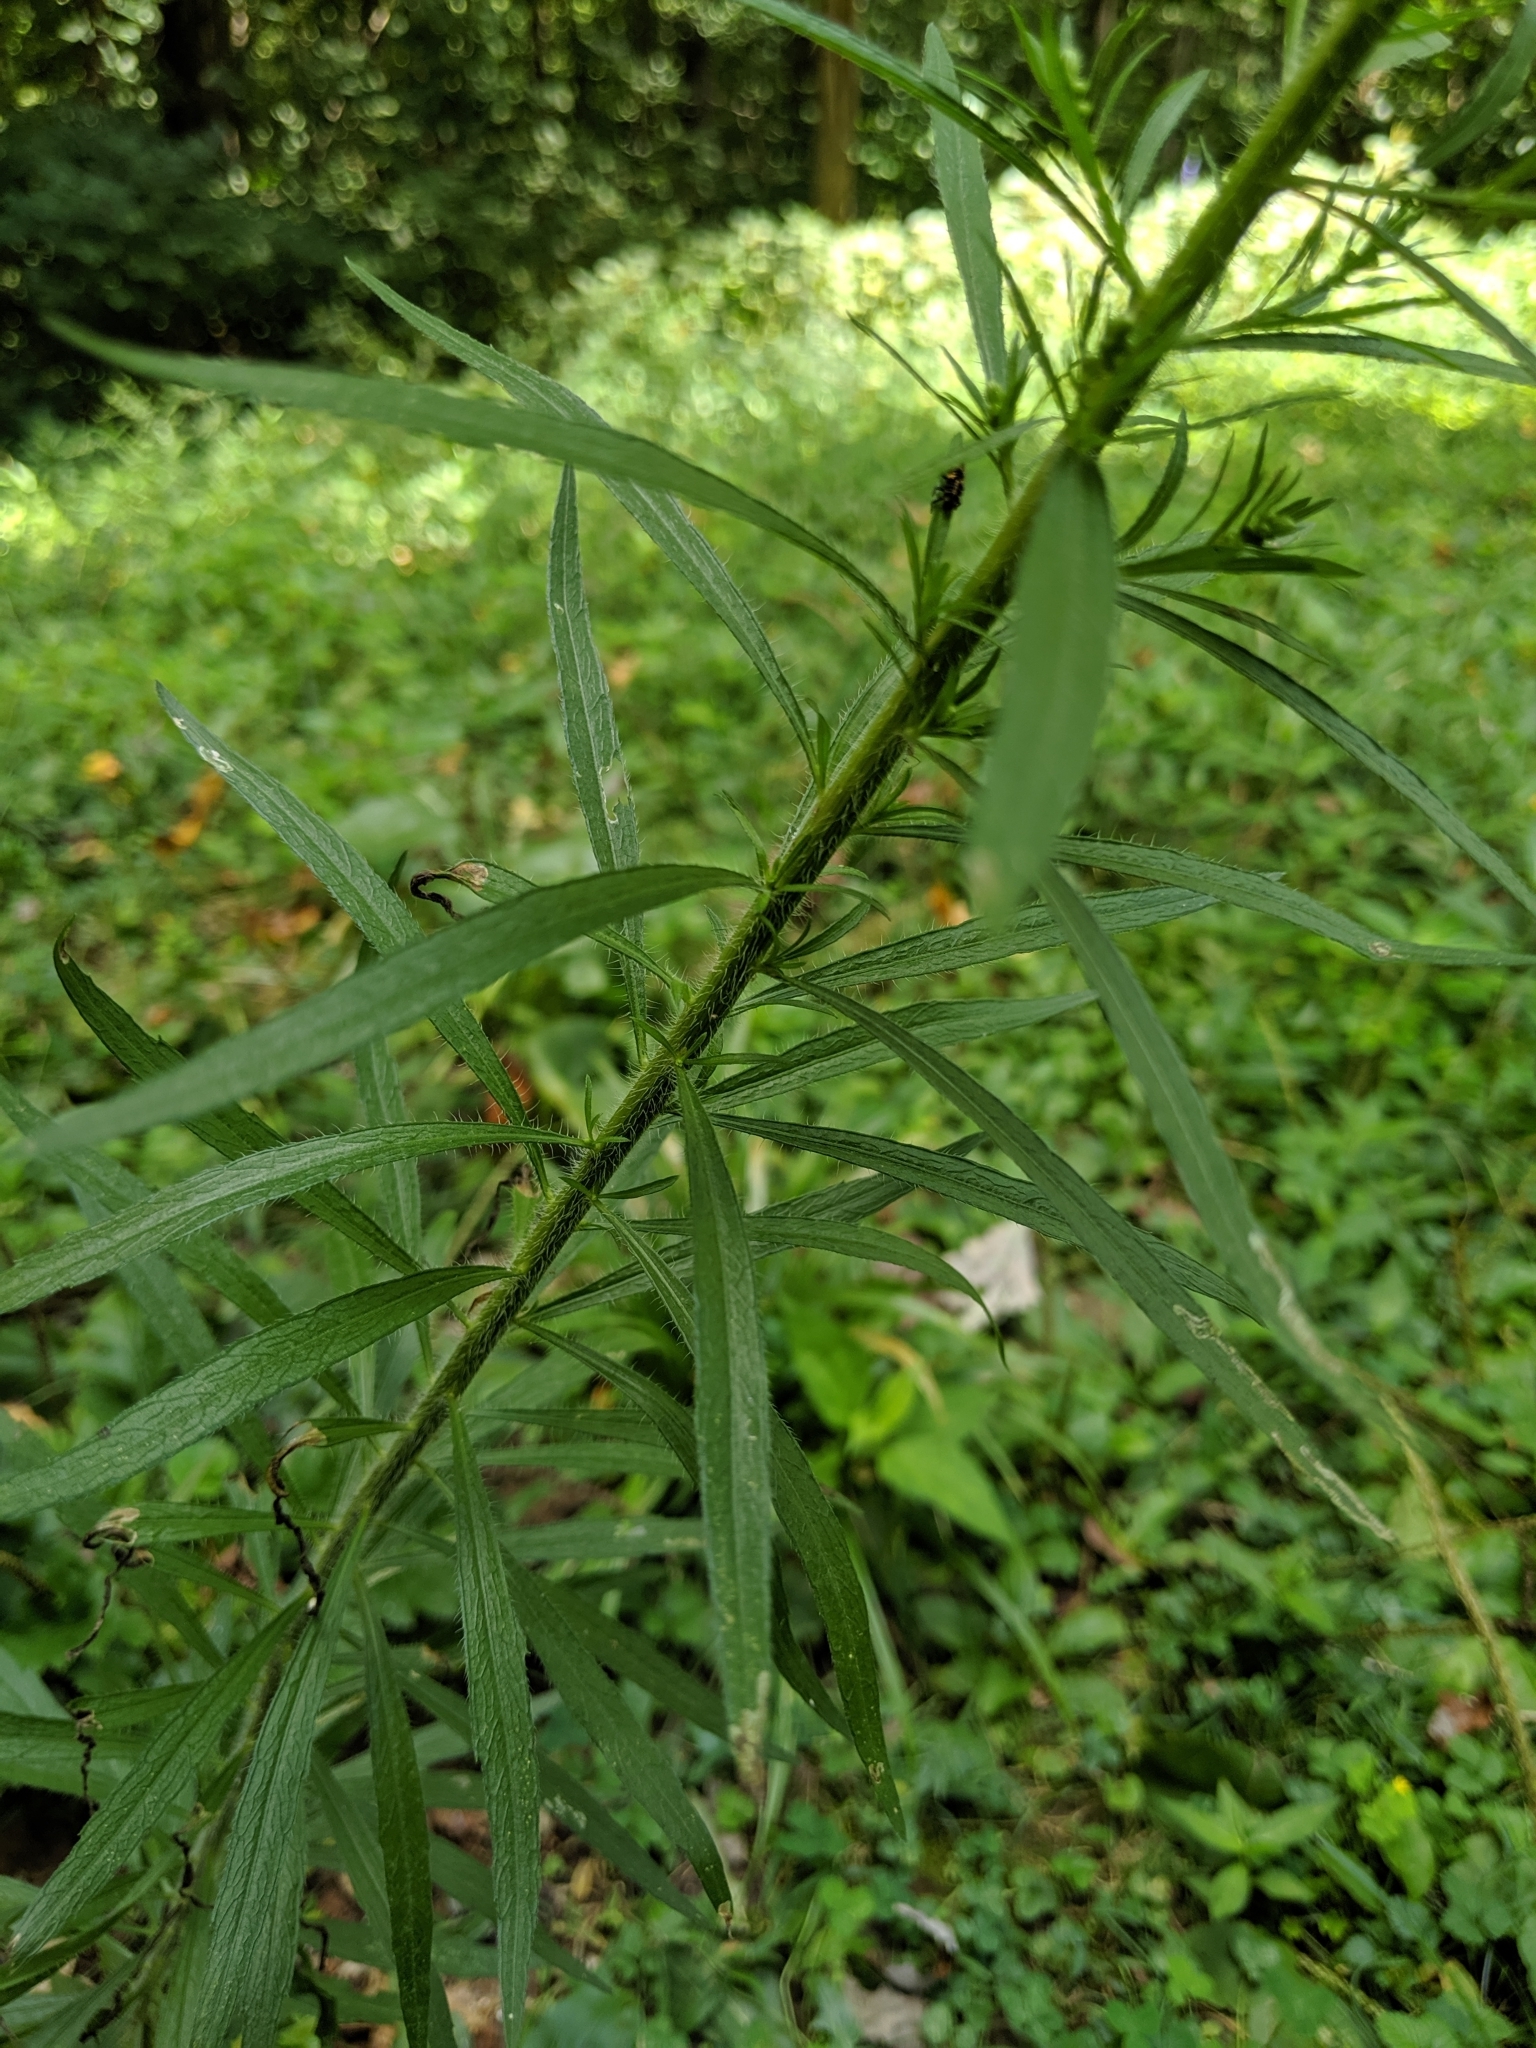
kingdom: Plantae
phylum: Tracheophyta
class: Magnoliopsida
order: Asterales
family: Asteraceae
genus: Erigeron
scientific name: Erigeron canadensis
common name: Canadian fleabane
